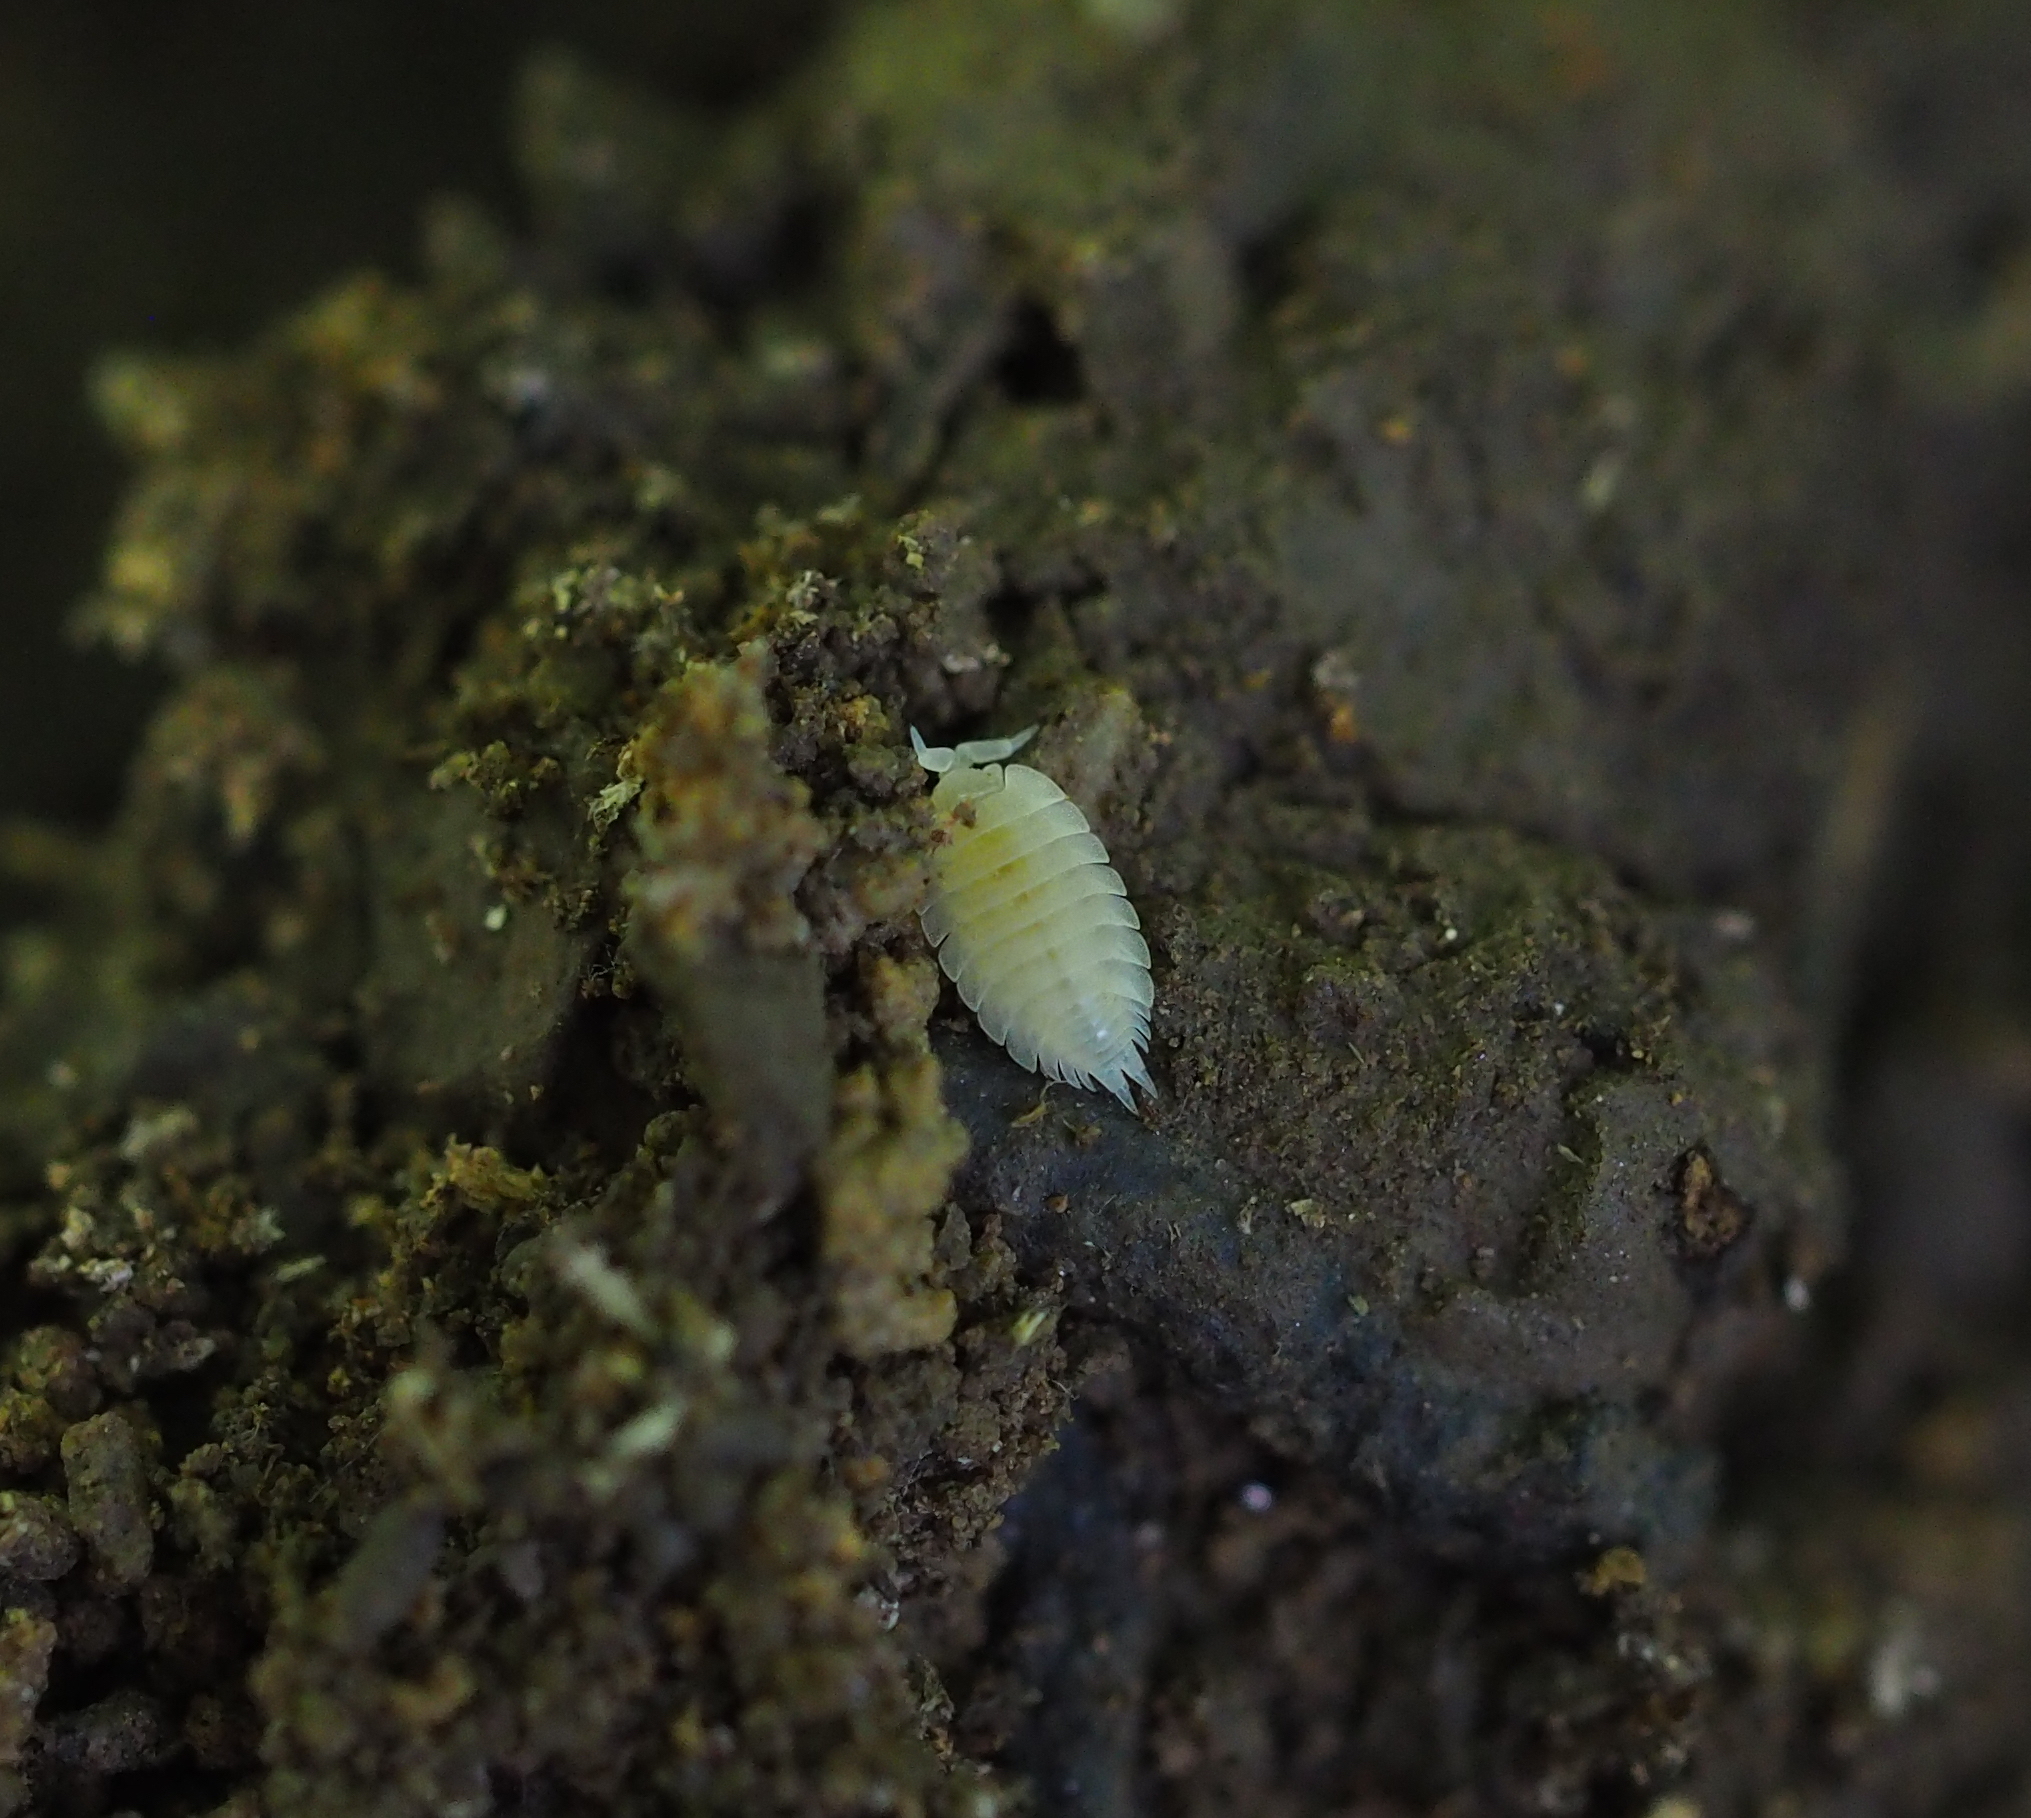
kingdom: Animalia
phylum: Arthropoda
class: Malacostraca
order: Isopoda
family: Platyarthridae
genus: Platyarthrus
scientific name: Platyarthrus hoffmannseggii
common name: Ant woodlouse
